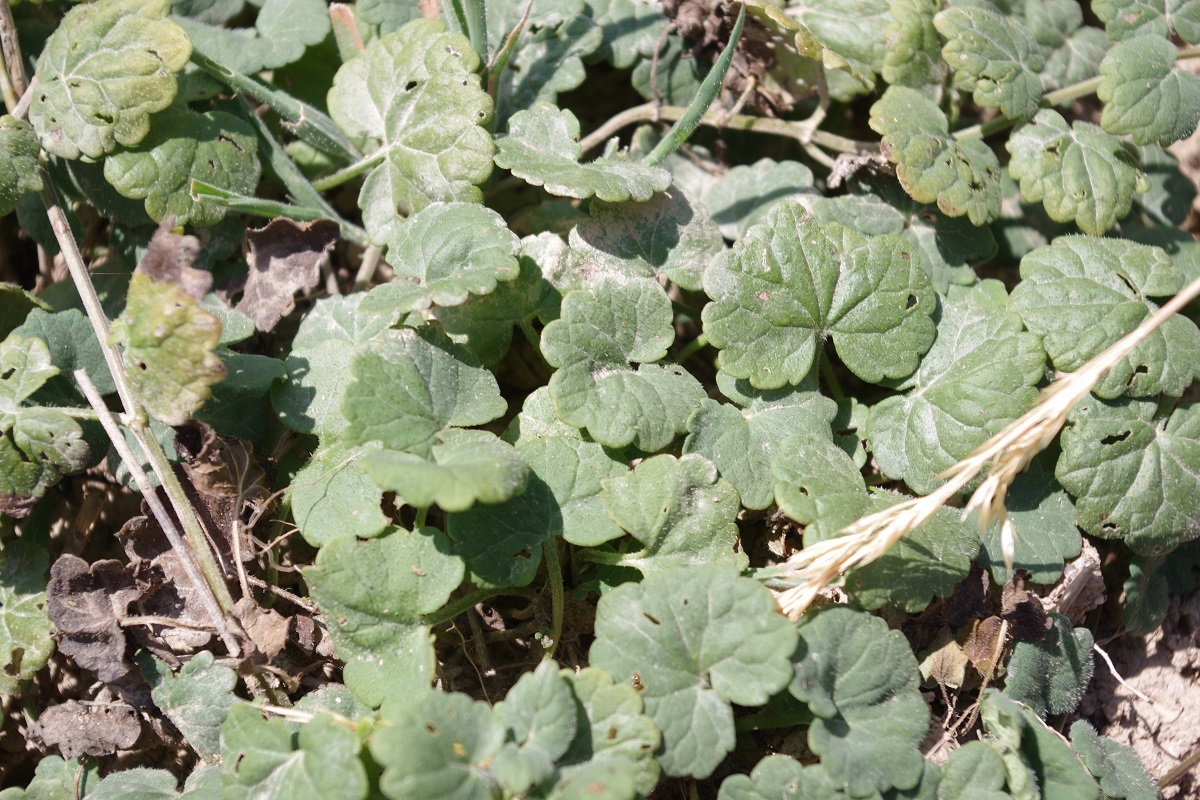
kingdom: Plantae
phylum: Tracheophyta
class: Magnoliopsida
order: Lamiales
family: Lamiaceae
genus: Glechoma
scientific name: Glechoma hederacea
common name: Ground ivy
